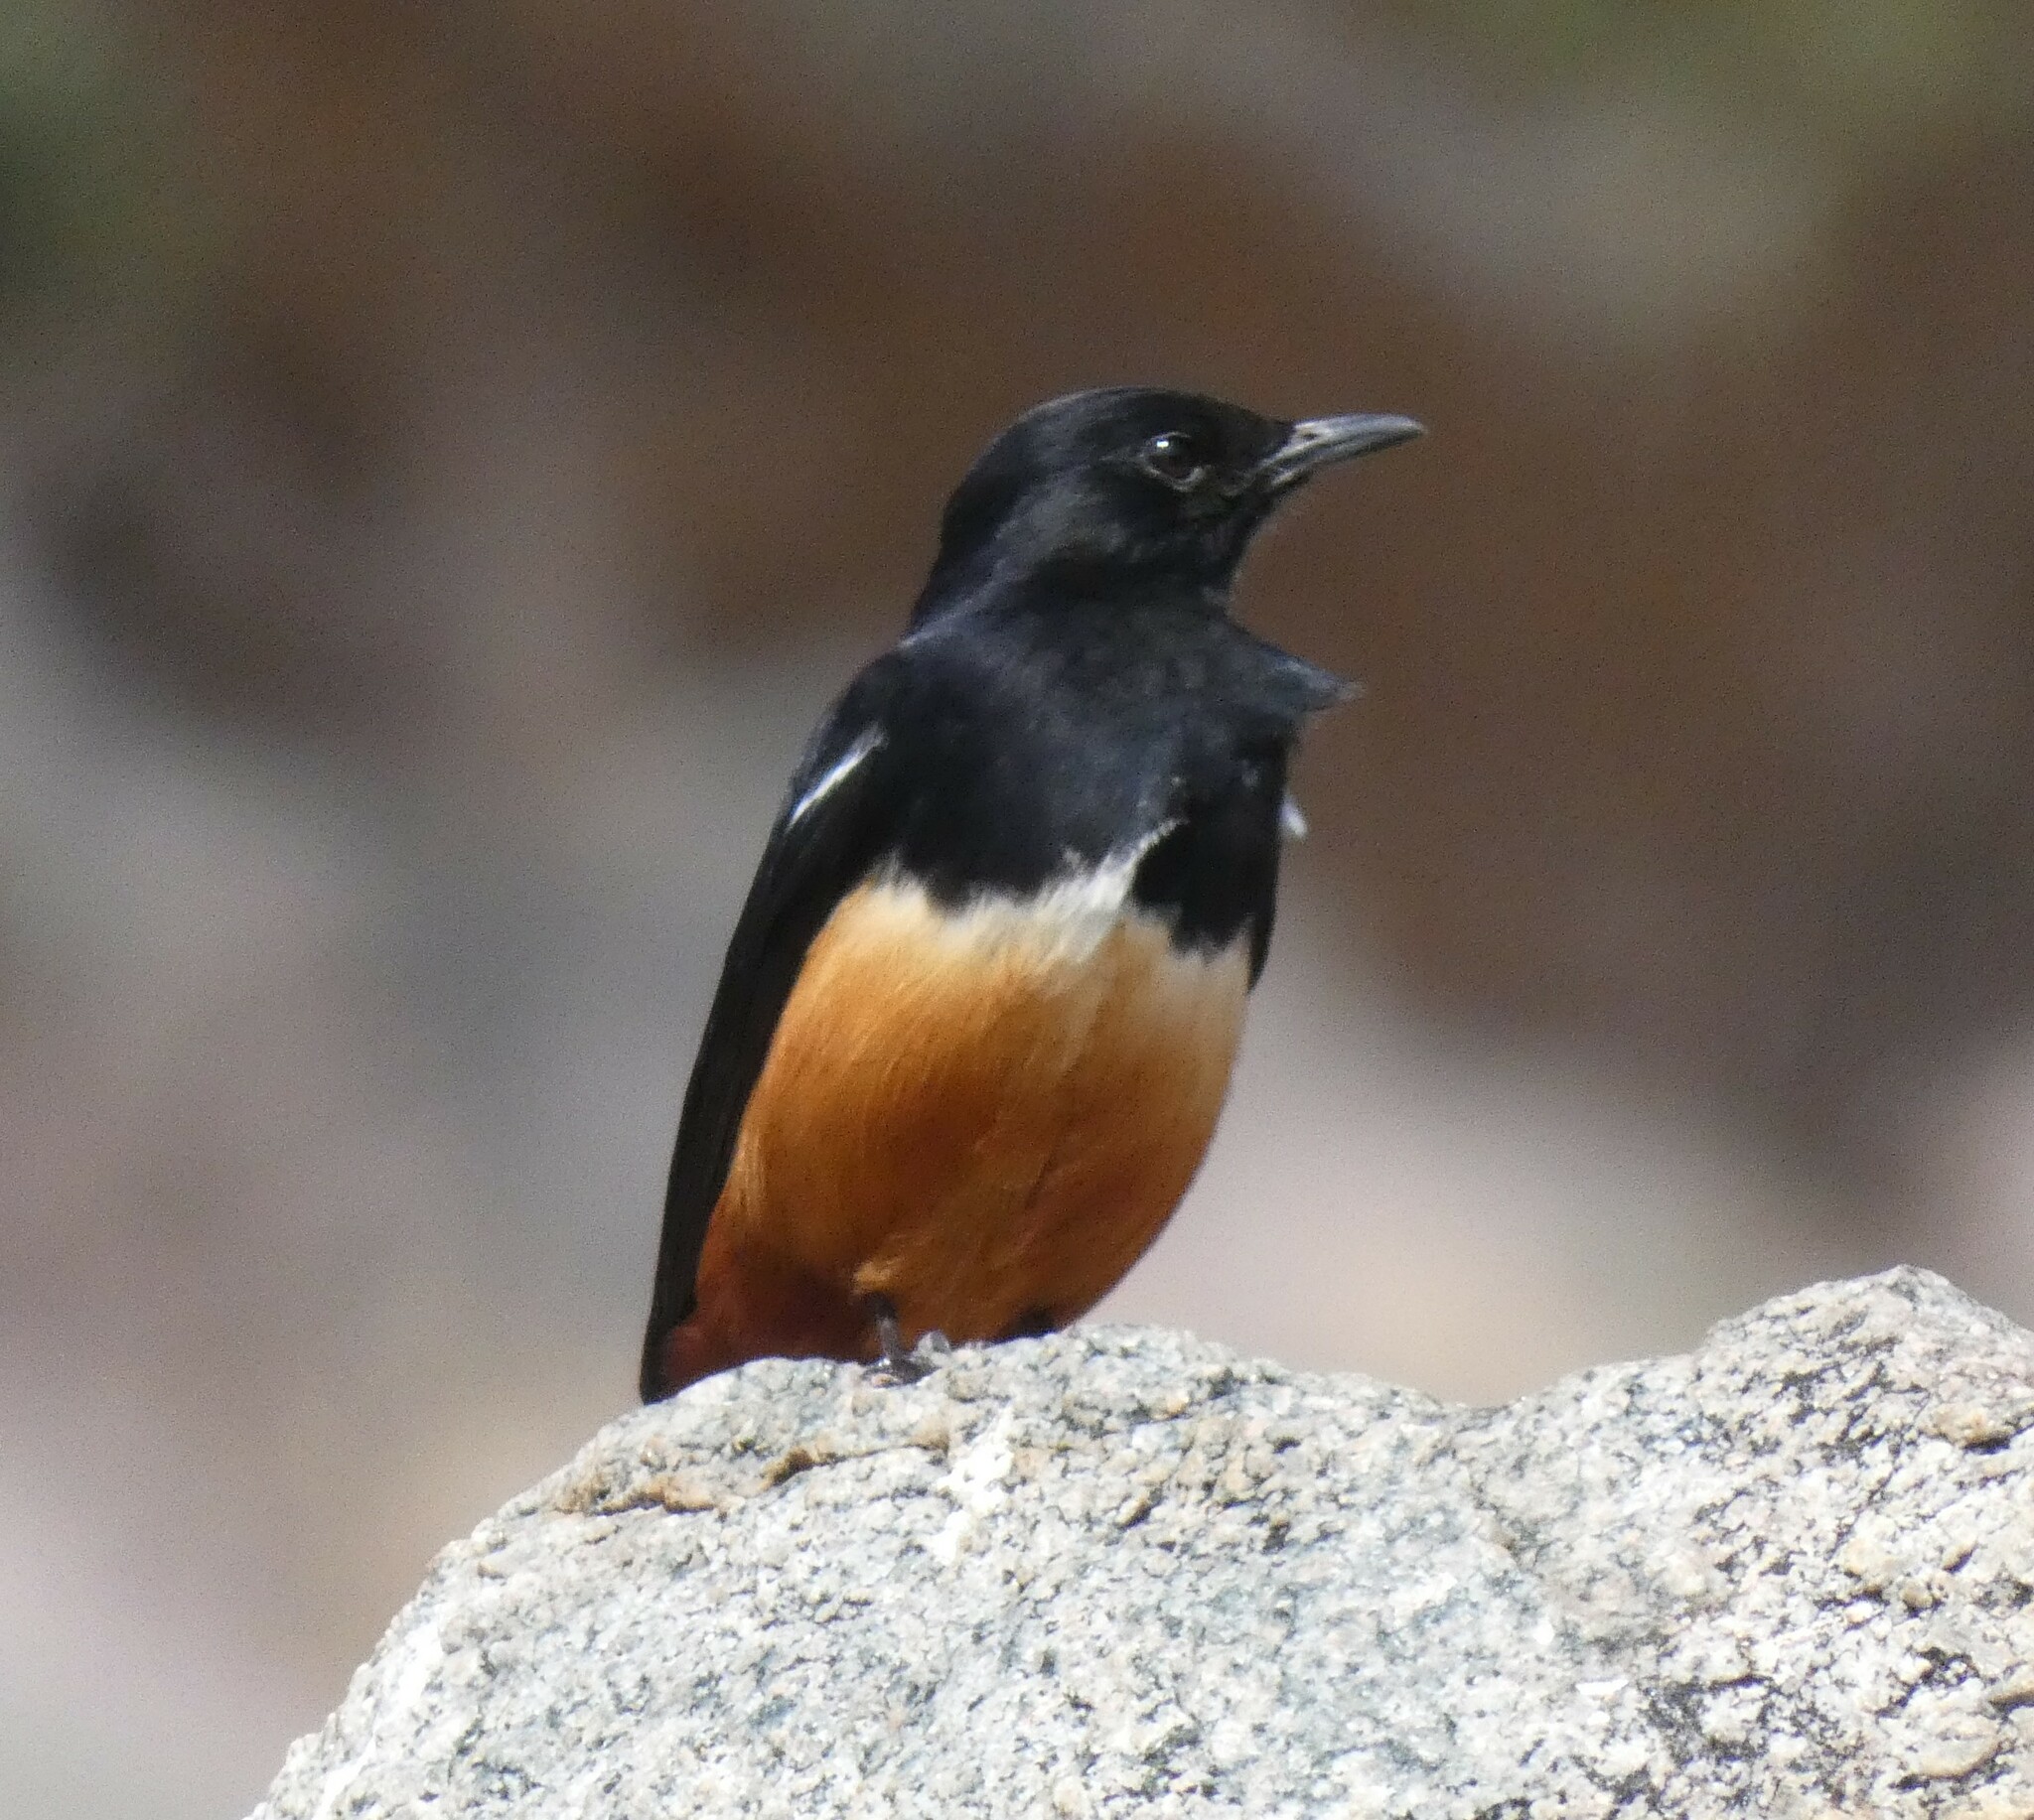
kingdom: Animalia
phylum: Chordata
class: Aves
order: Passeriformes
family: Muscicapidae
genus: Thamnolaea
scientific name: Thamnolaea cinnamomeiventris
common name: Mocking cliff chat
